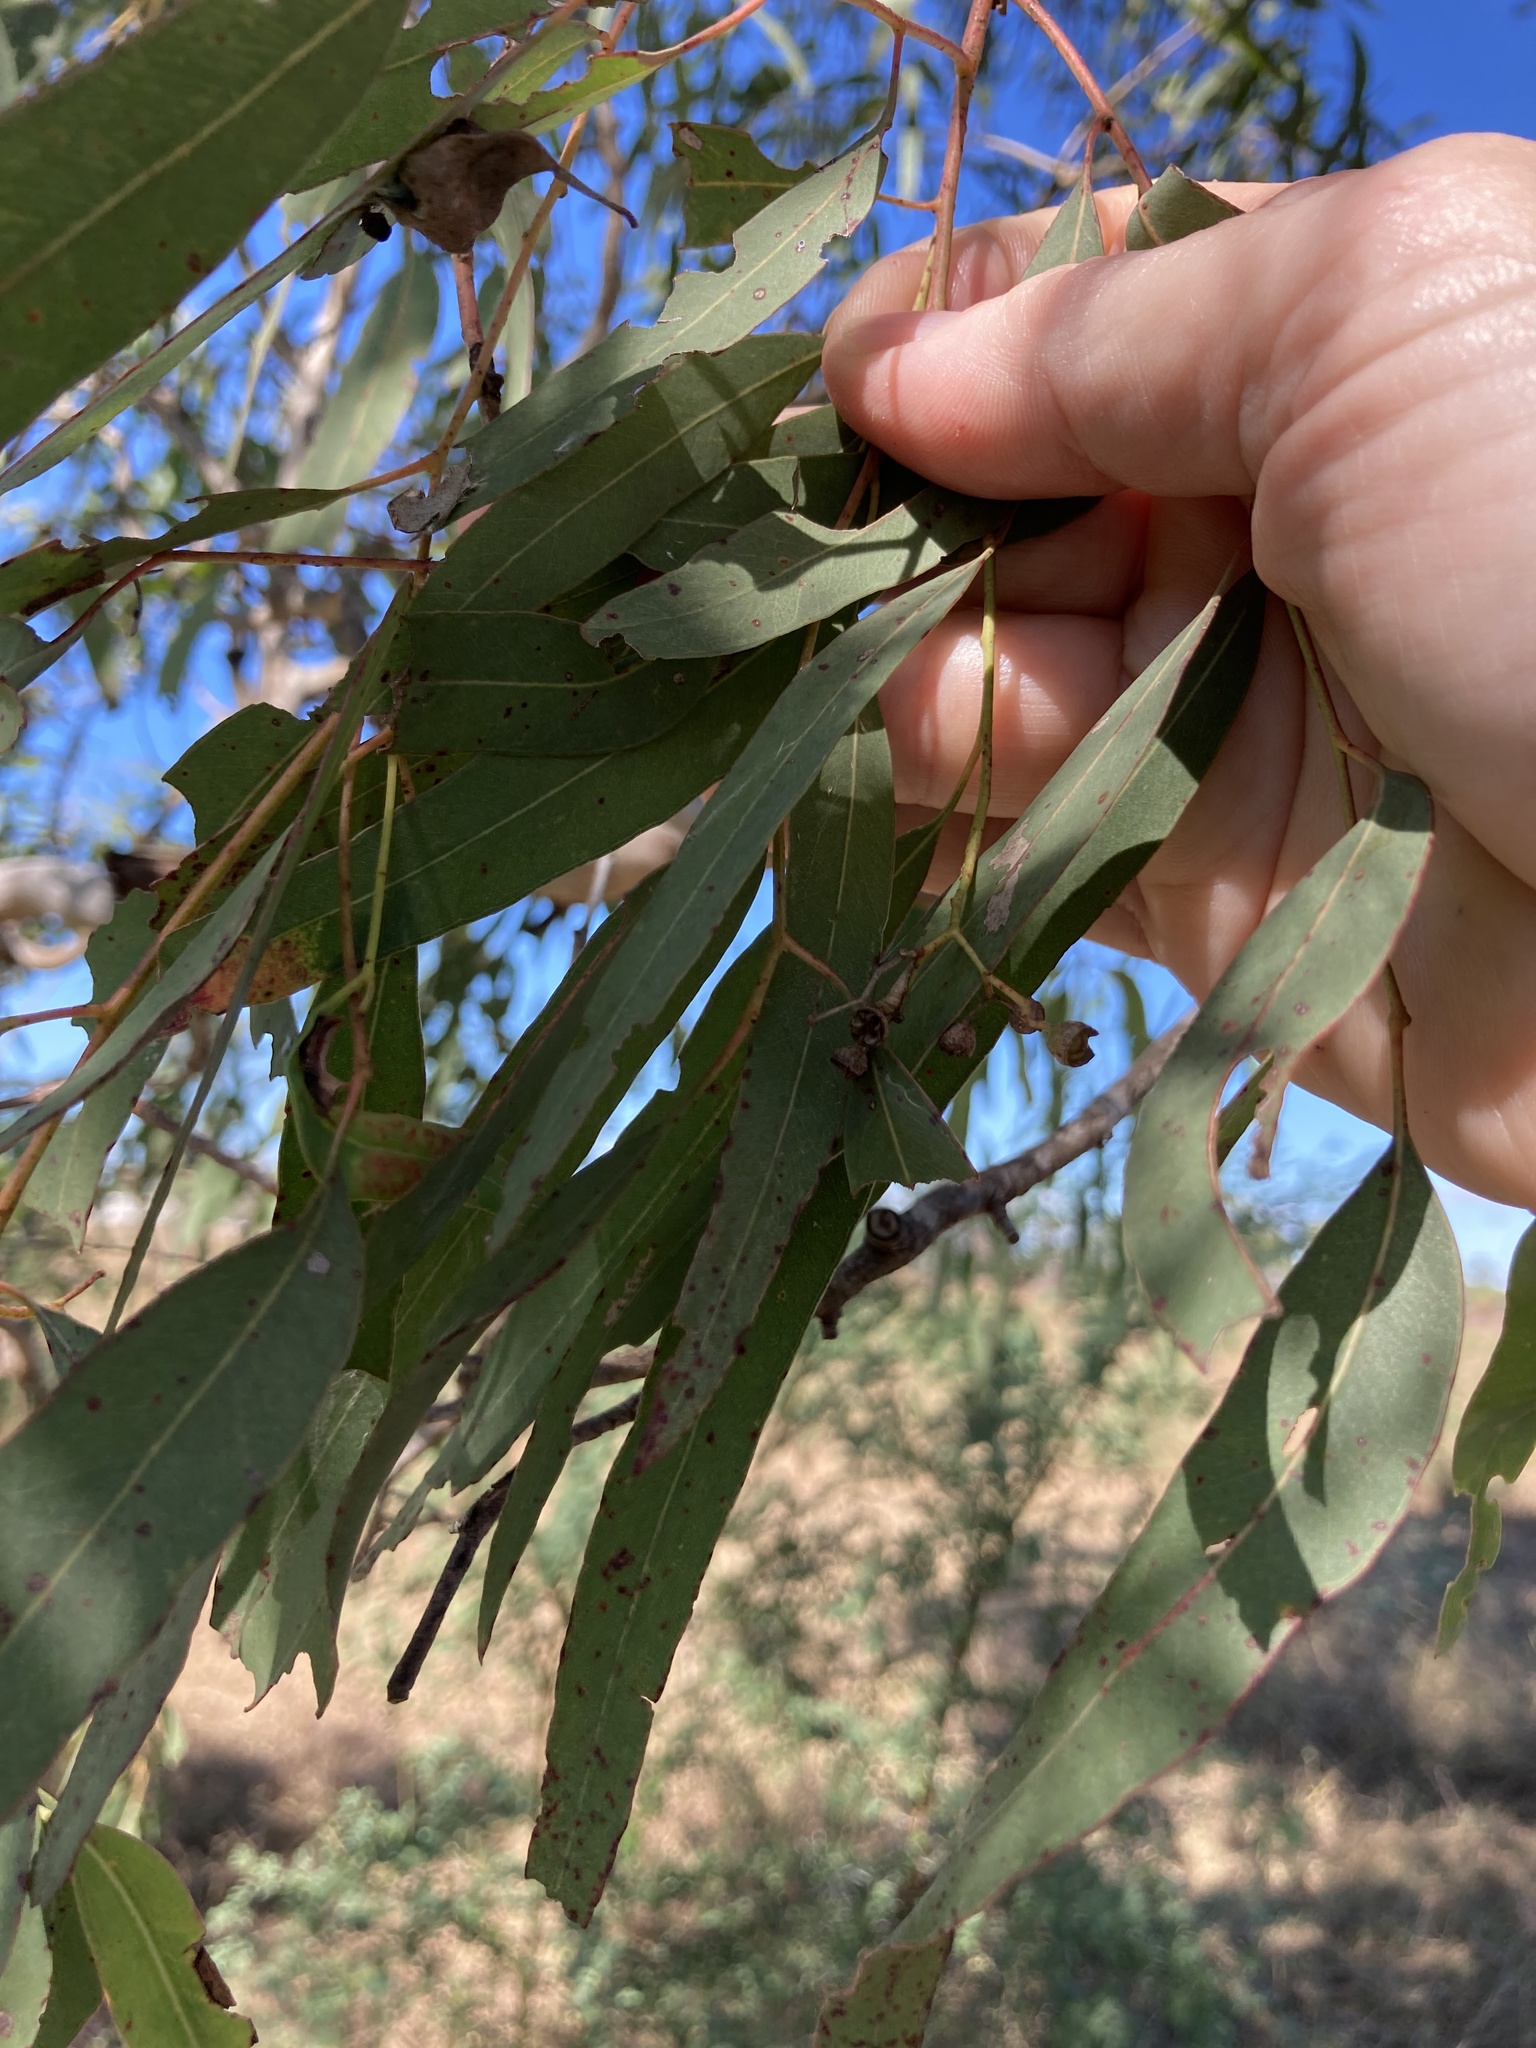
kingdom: Plantae
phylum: Tracheophyta
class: Magnoliopsida
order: Myrtales
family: Myrtaceae
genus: Eucalyptus
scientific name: Eucalyptus coolabah
